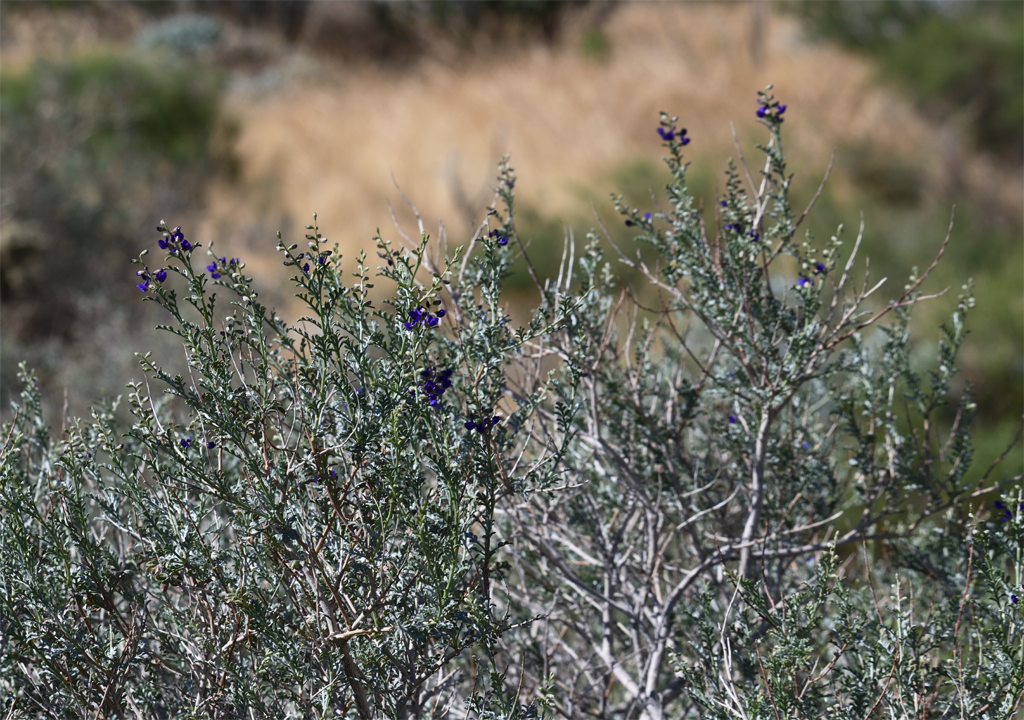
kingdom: Plantae
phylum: Tracheophyta
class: Magnoliopsida
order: Fabales
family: Fabaceae
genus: Psorothamnus
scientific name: Psorothamnus arborescens
